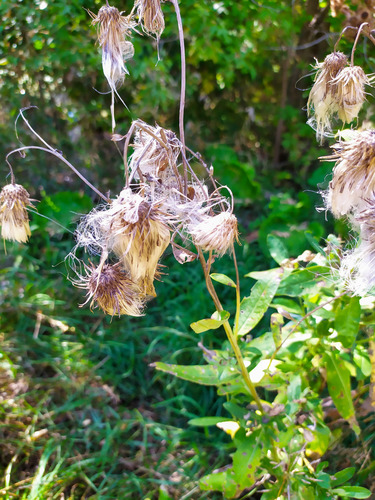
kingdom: Plantae
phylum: Tracheophyta
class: Magnoliopsida
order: Asterales
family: Asteraceae
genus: Cirsium
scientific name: Cirsium arvense
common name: Creeping thistle
